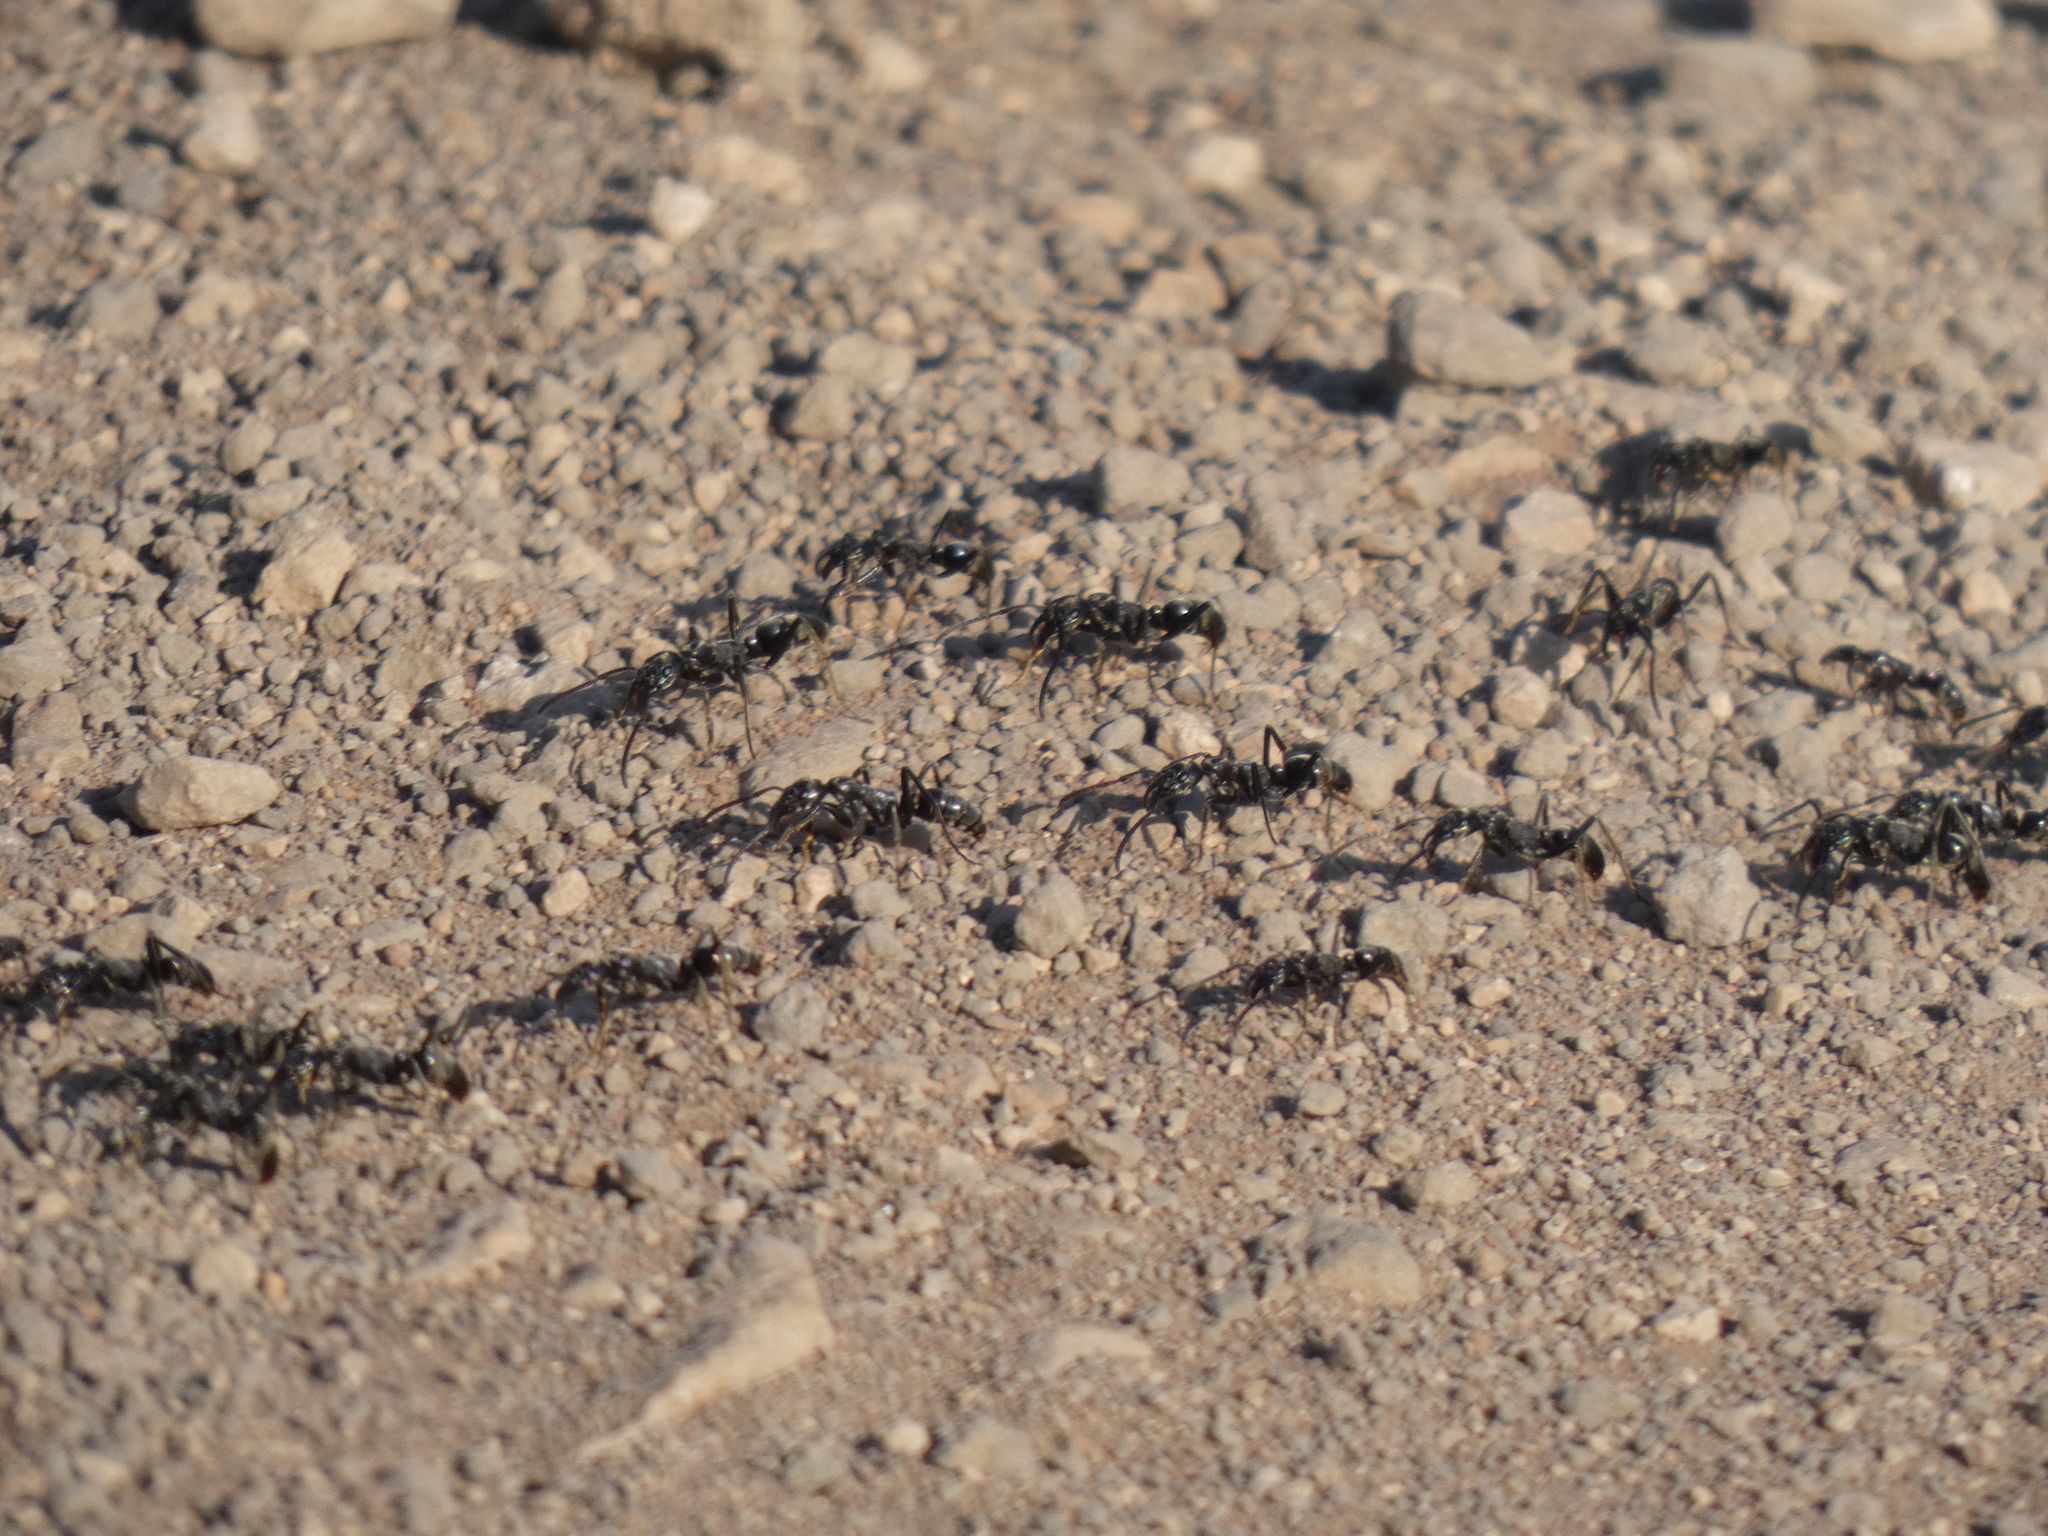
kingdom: Animalia
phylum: Arthropoda
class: Insecta
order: Hymenoptera
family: Formicidae
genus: Megaponera
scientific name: Megaponera analis
